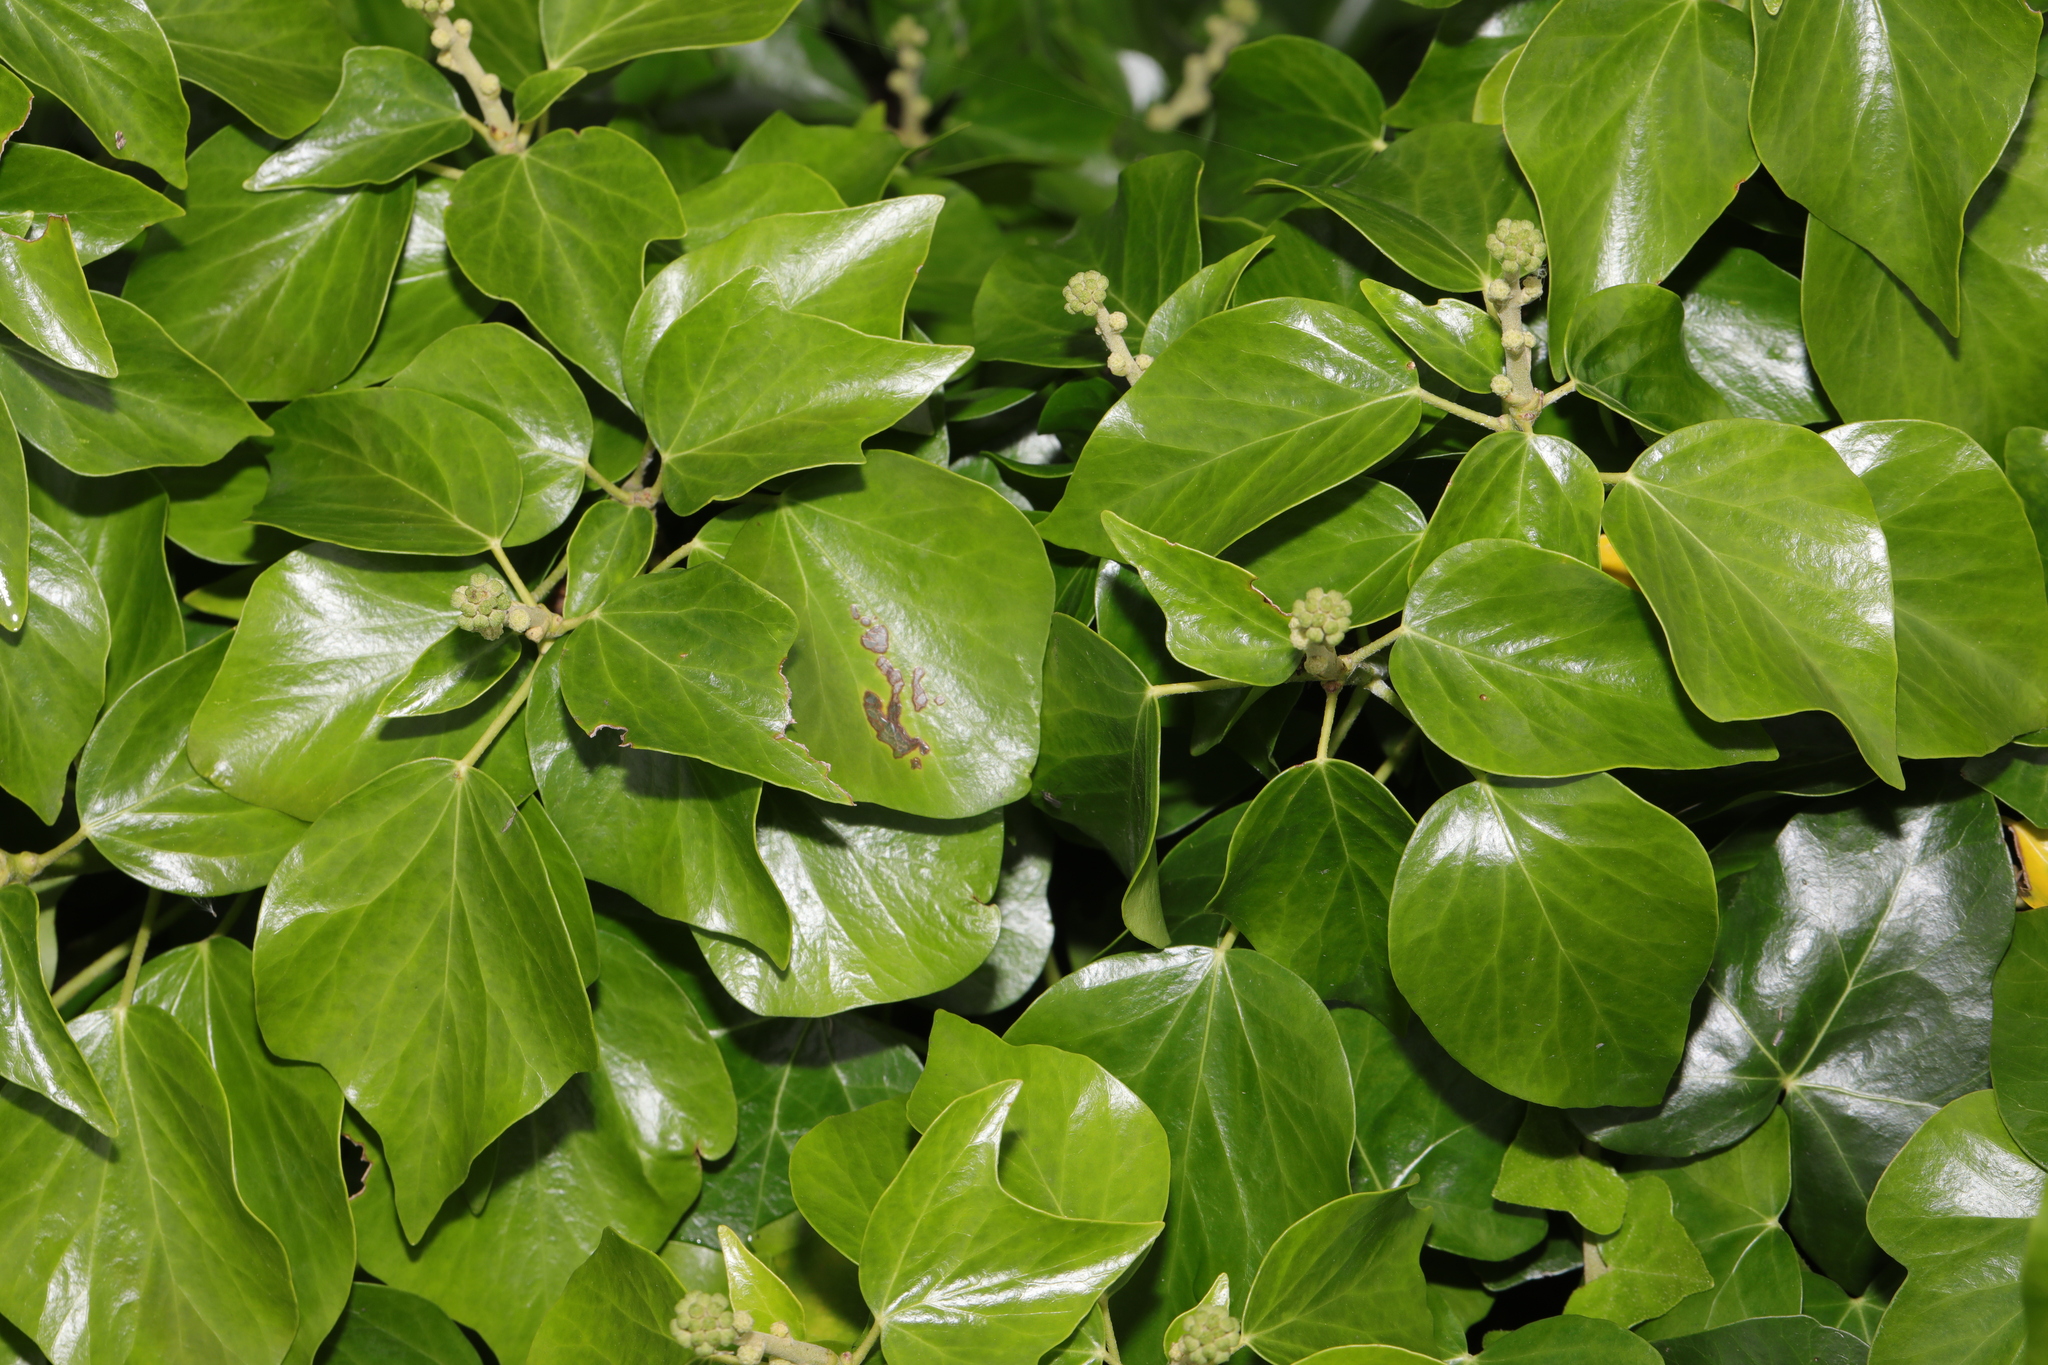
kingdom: Plantae
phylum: Tracheophyta
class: Magnoliopsida
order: Apiales
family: Araliaceae
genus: Hedera
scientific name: Hedera helix
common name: Ivy
